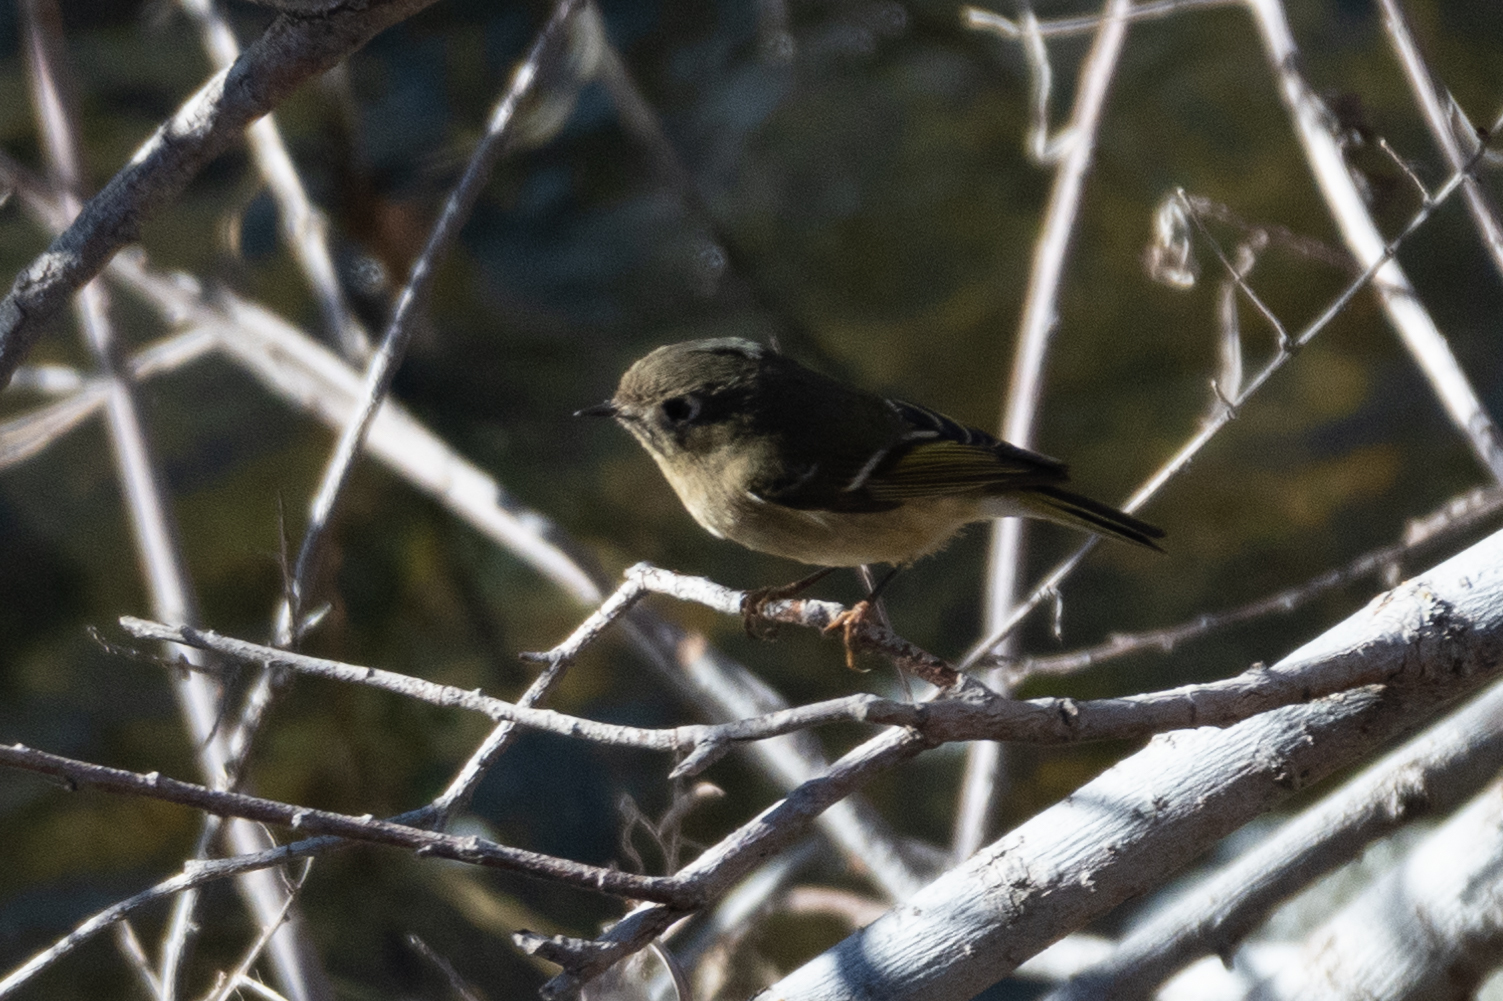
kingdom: Animalia
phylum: Chordata
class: Aves
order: Passeriformes
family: Regulidae
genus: Regulus
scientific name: Regulus calendula
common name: Ruby-crowned kinglet
